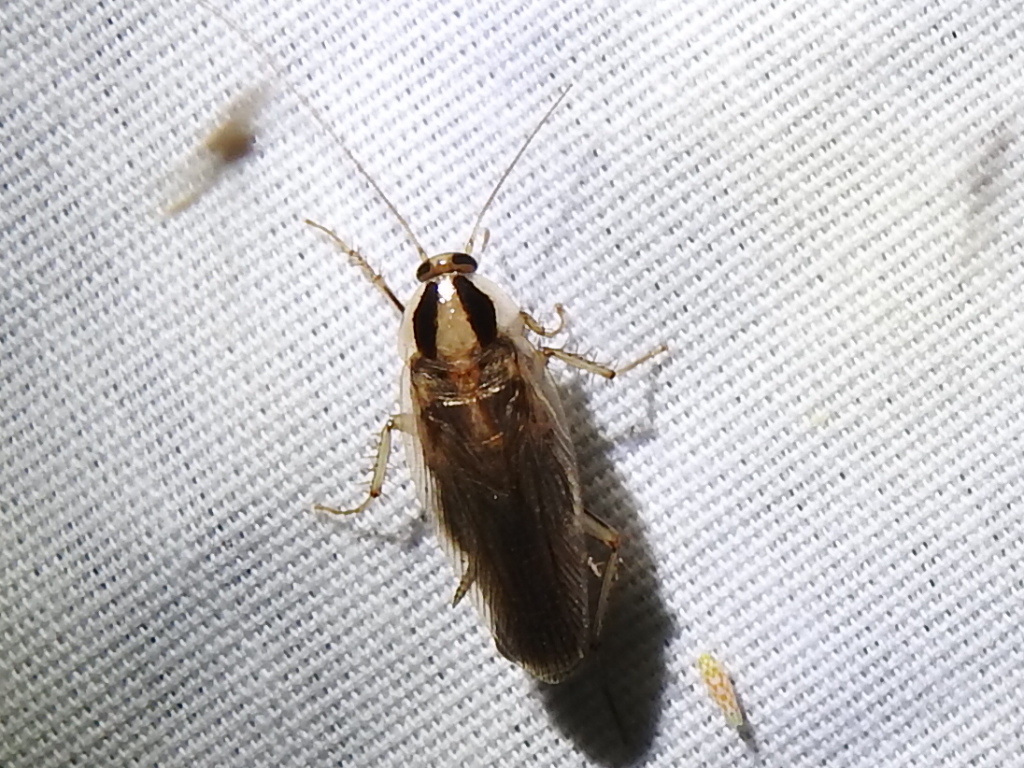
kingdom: Animalia
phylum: Arthropoda
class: Insecta
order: Blattodea
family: Ectobiidae
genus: Blattella
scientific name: Blattella vaga
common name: Field cockroach
